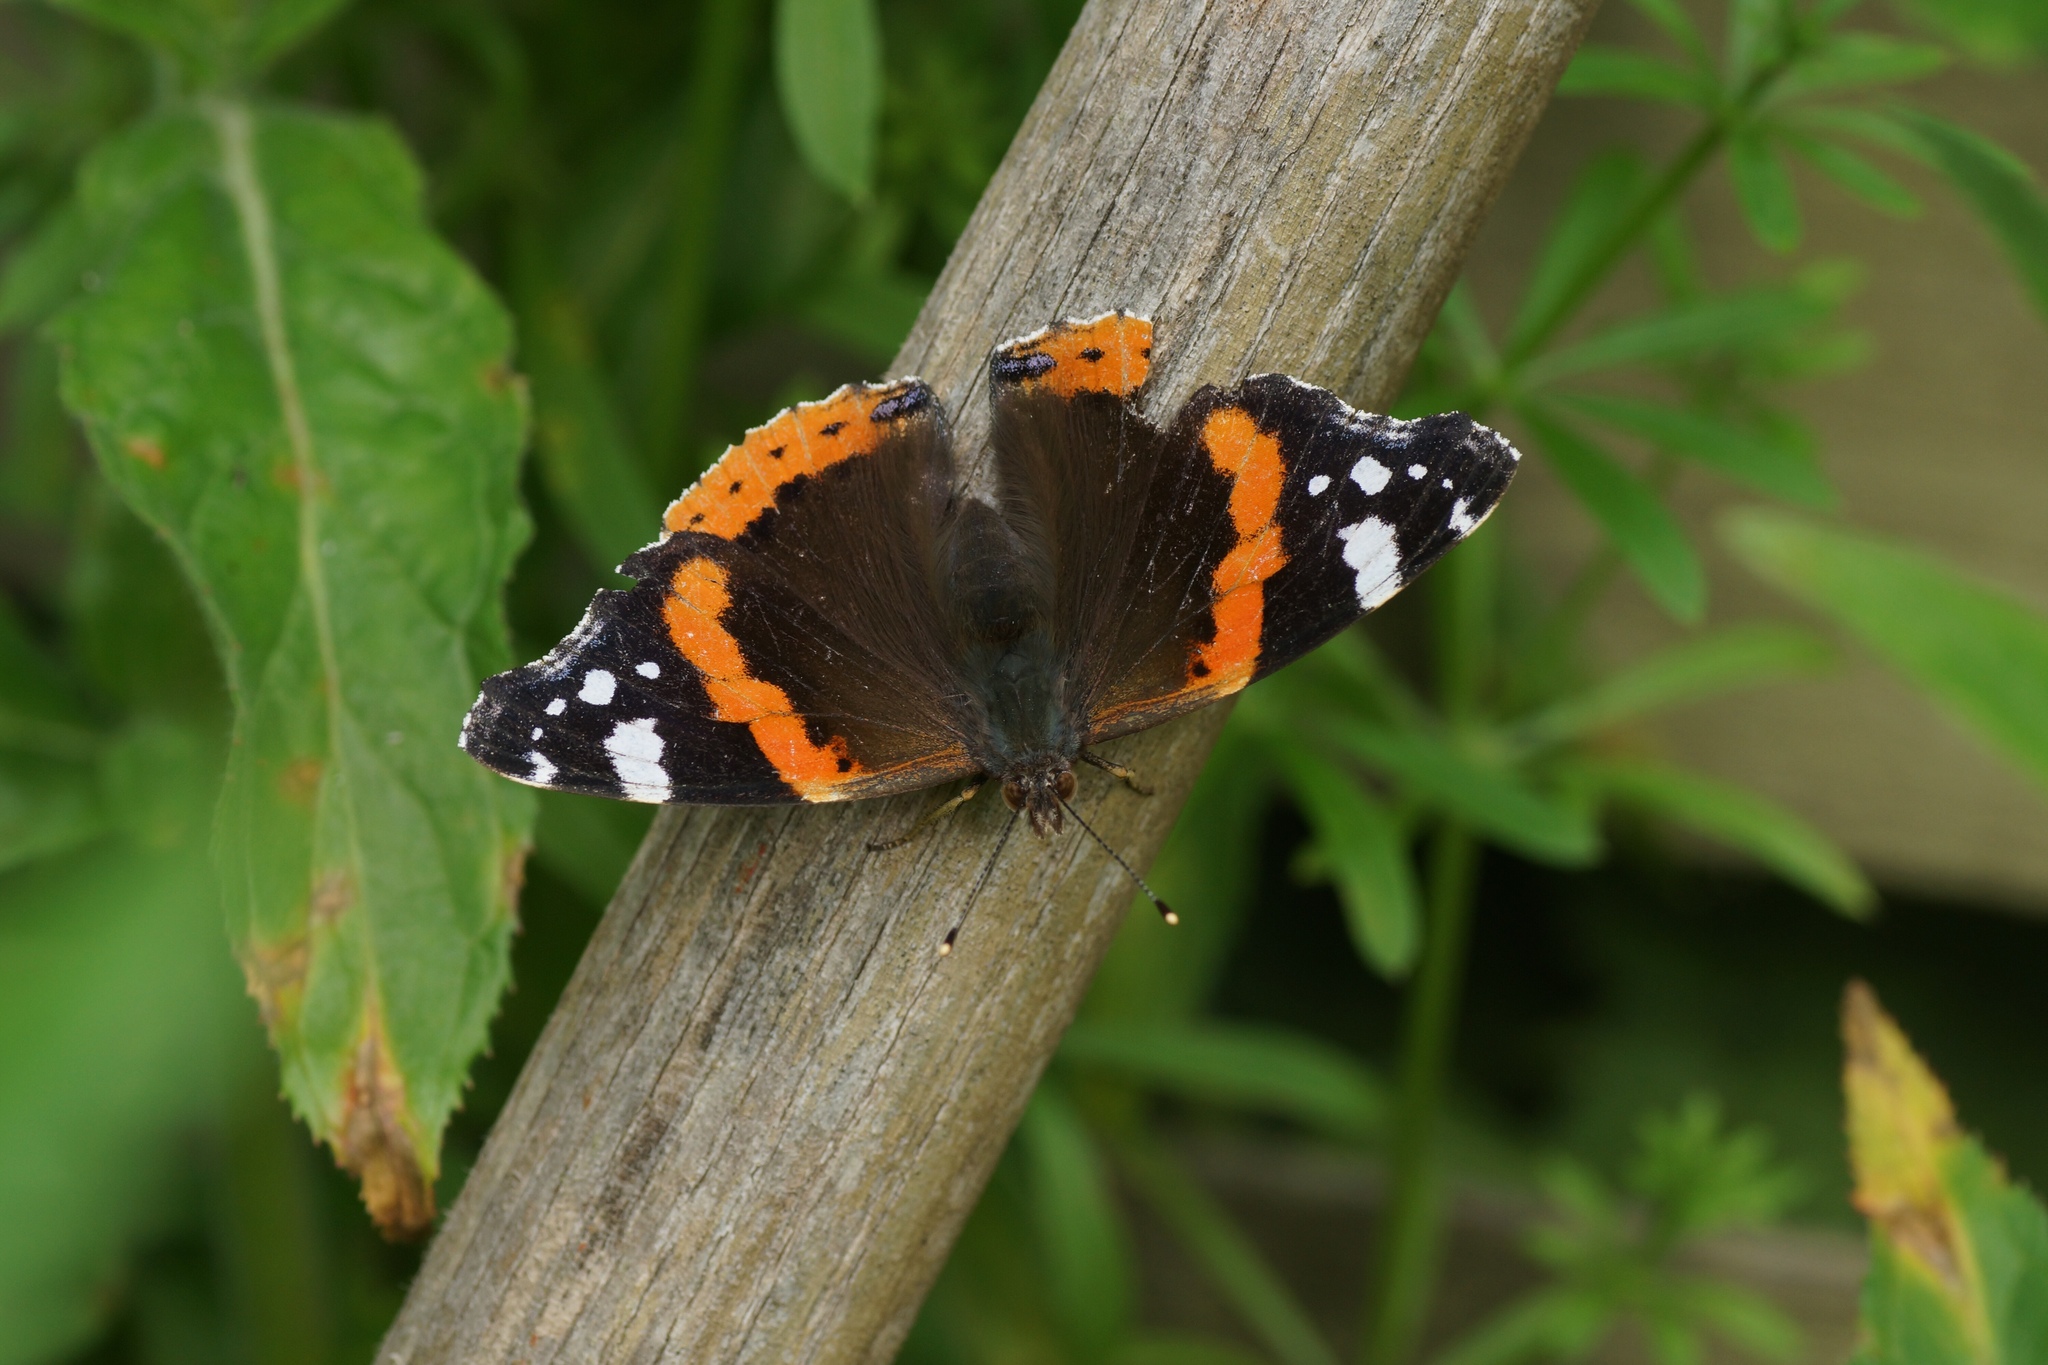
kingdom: Animalia
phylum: Arthropoda
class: Insecta
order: Lepidoptera
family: Nymphalidae
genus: Vanessa
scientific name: Vanessa atalanta
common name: Red admiral
